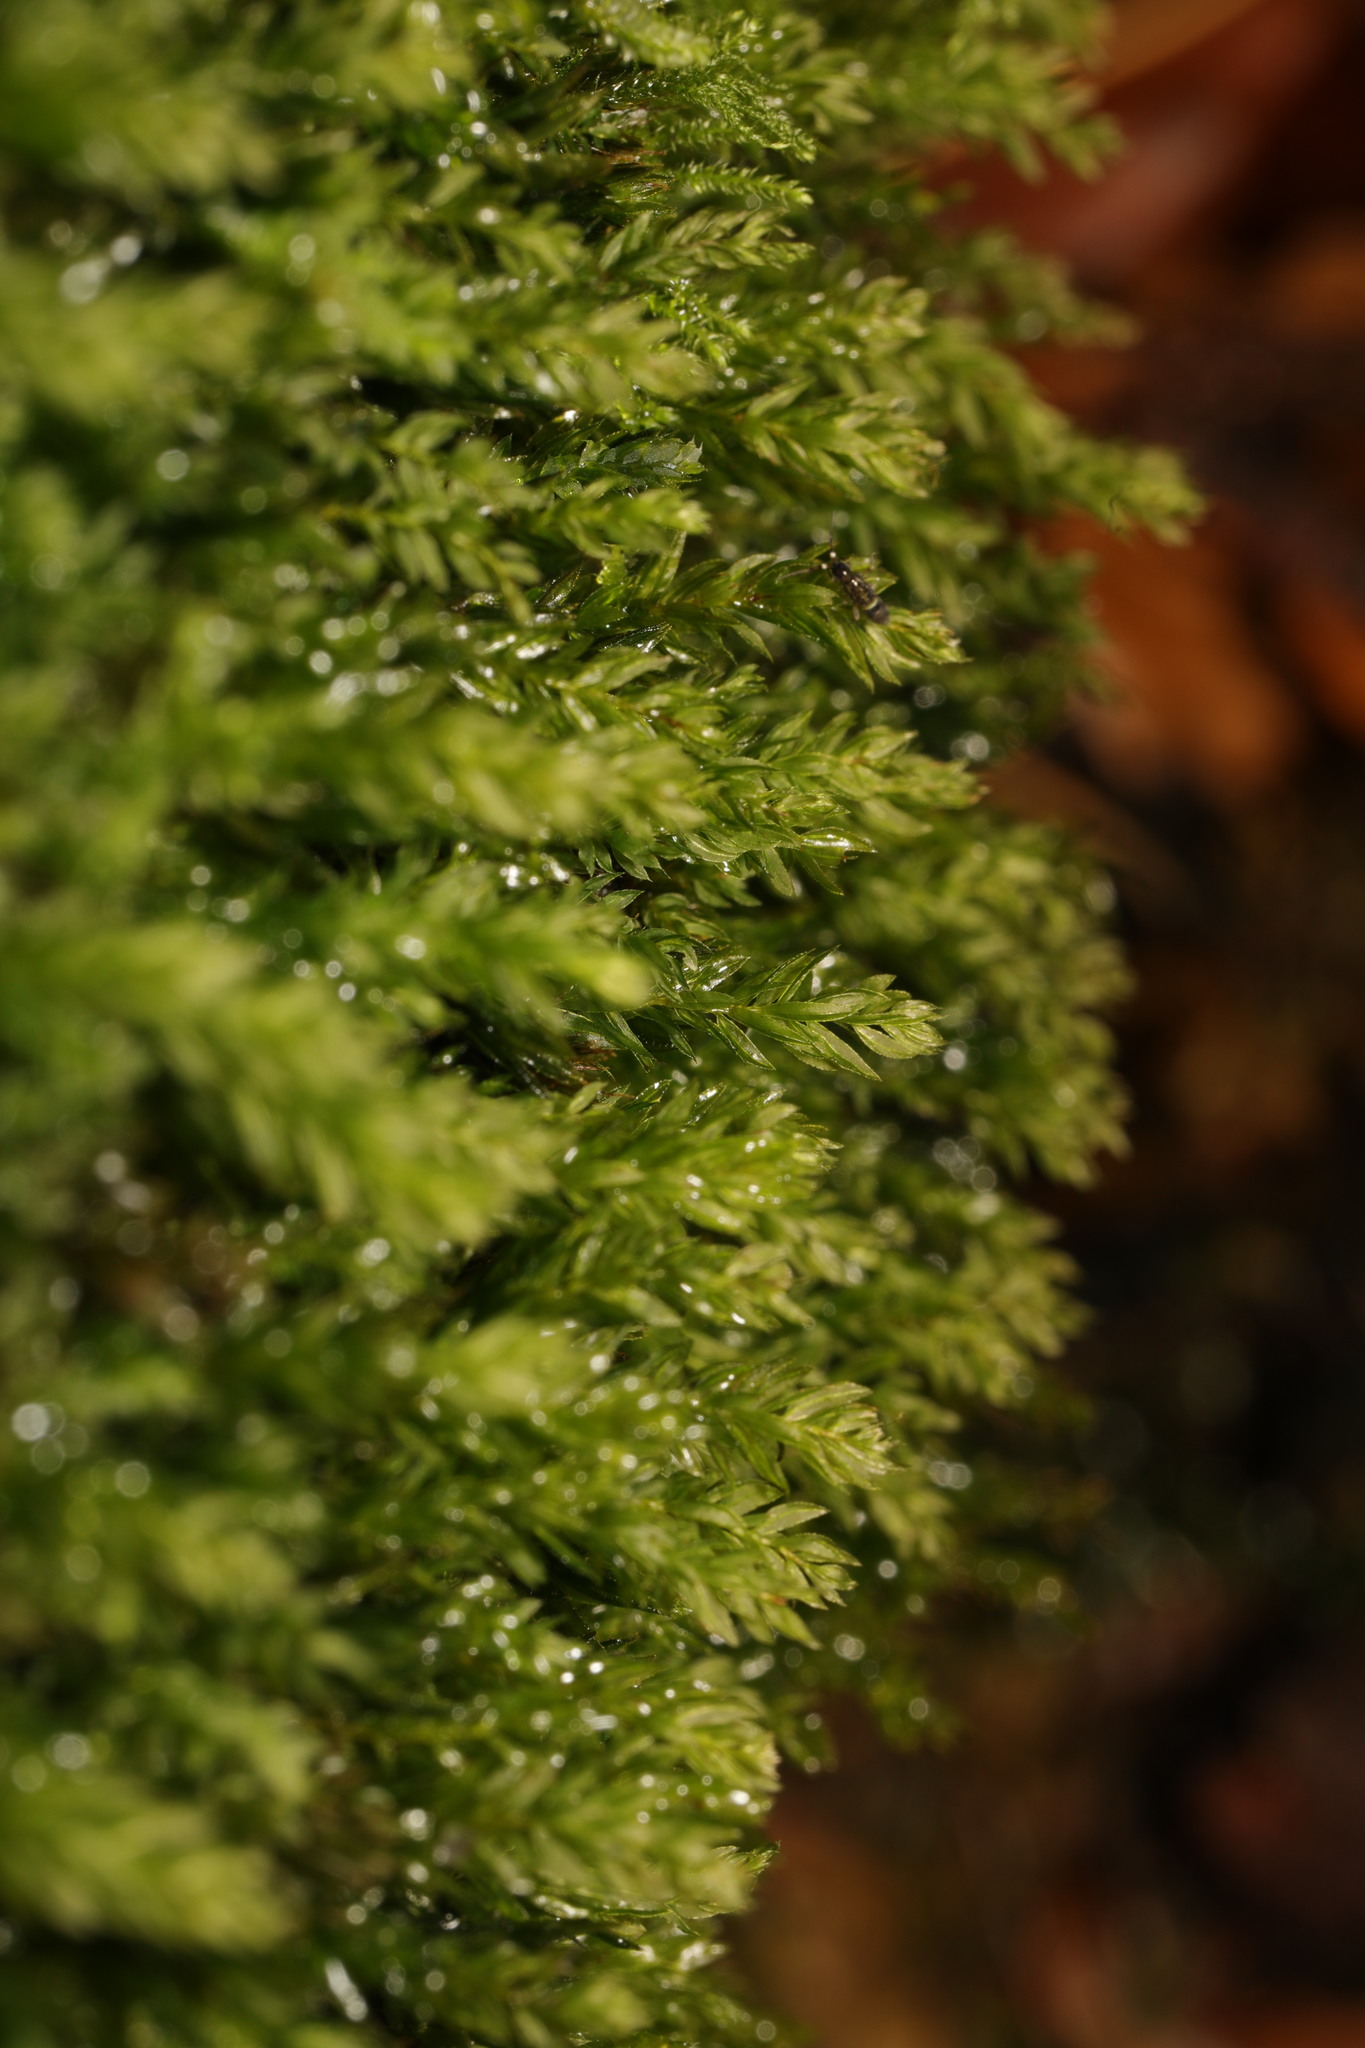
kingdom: Plantae
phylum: Bryophyta
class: Bryopsida
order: Bryales
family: Mniaceae
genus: Mnium
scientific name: Mnium hornum
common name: Swan's-neck leafy moss
